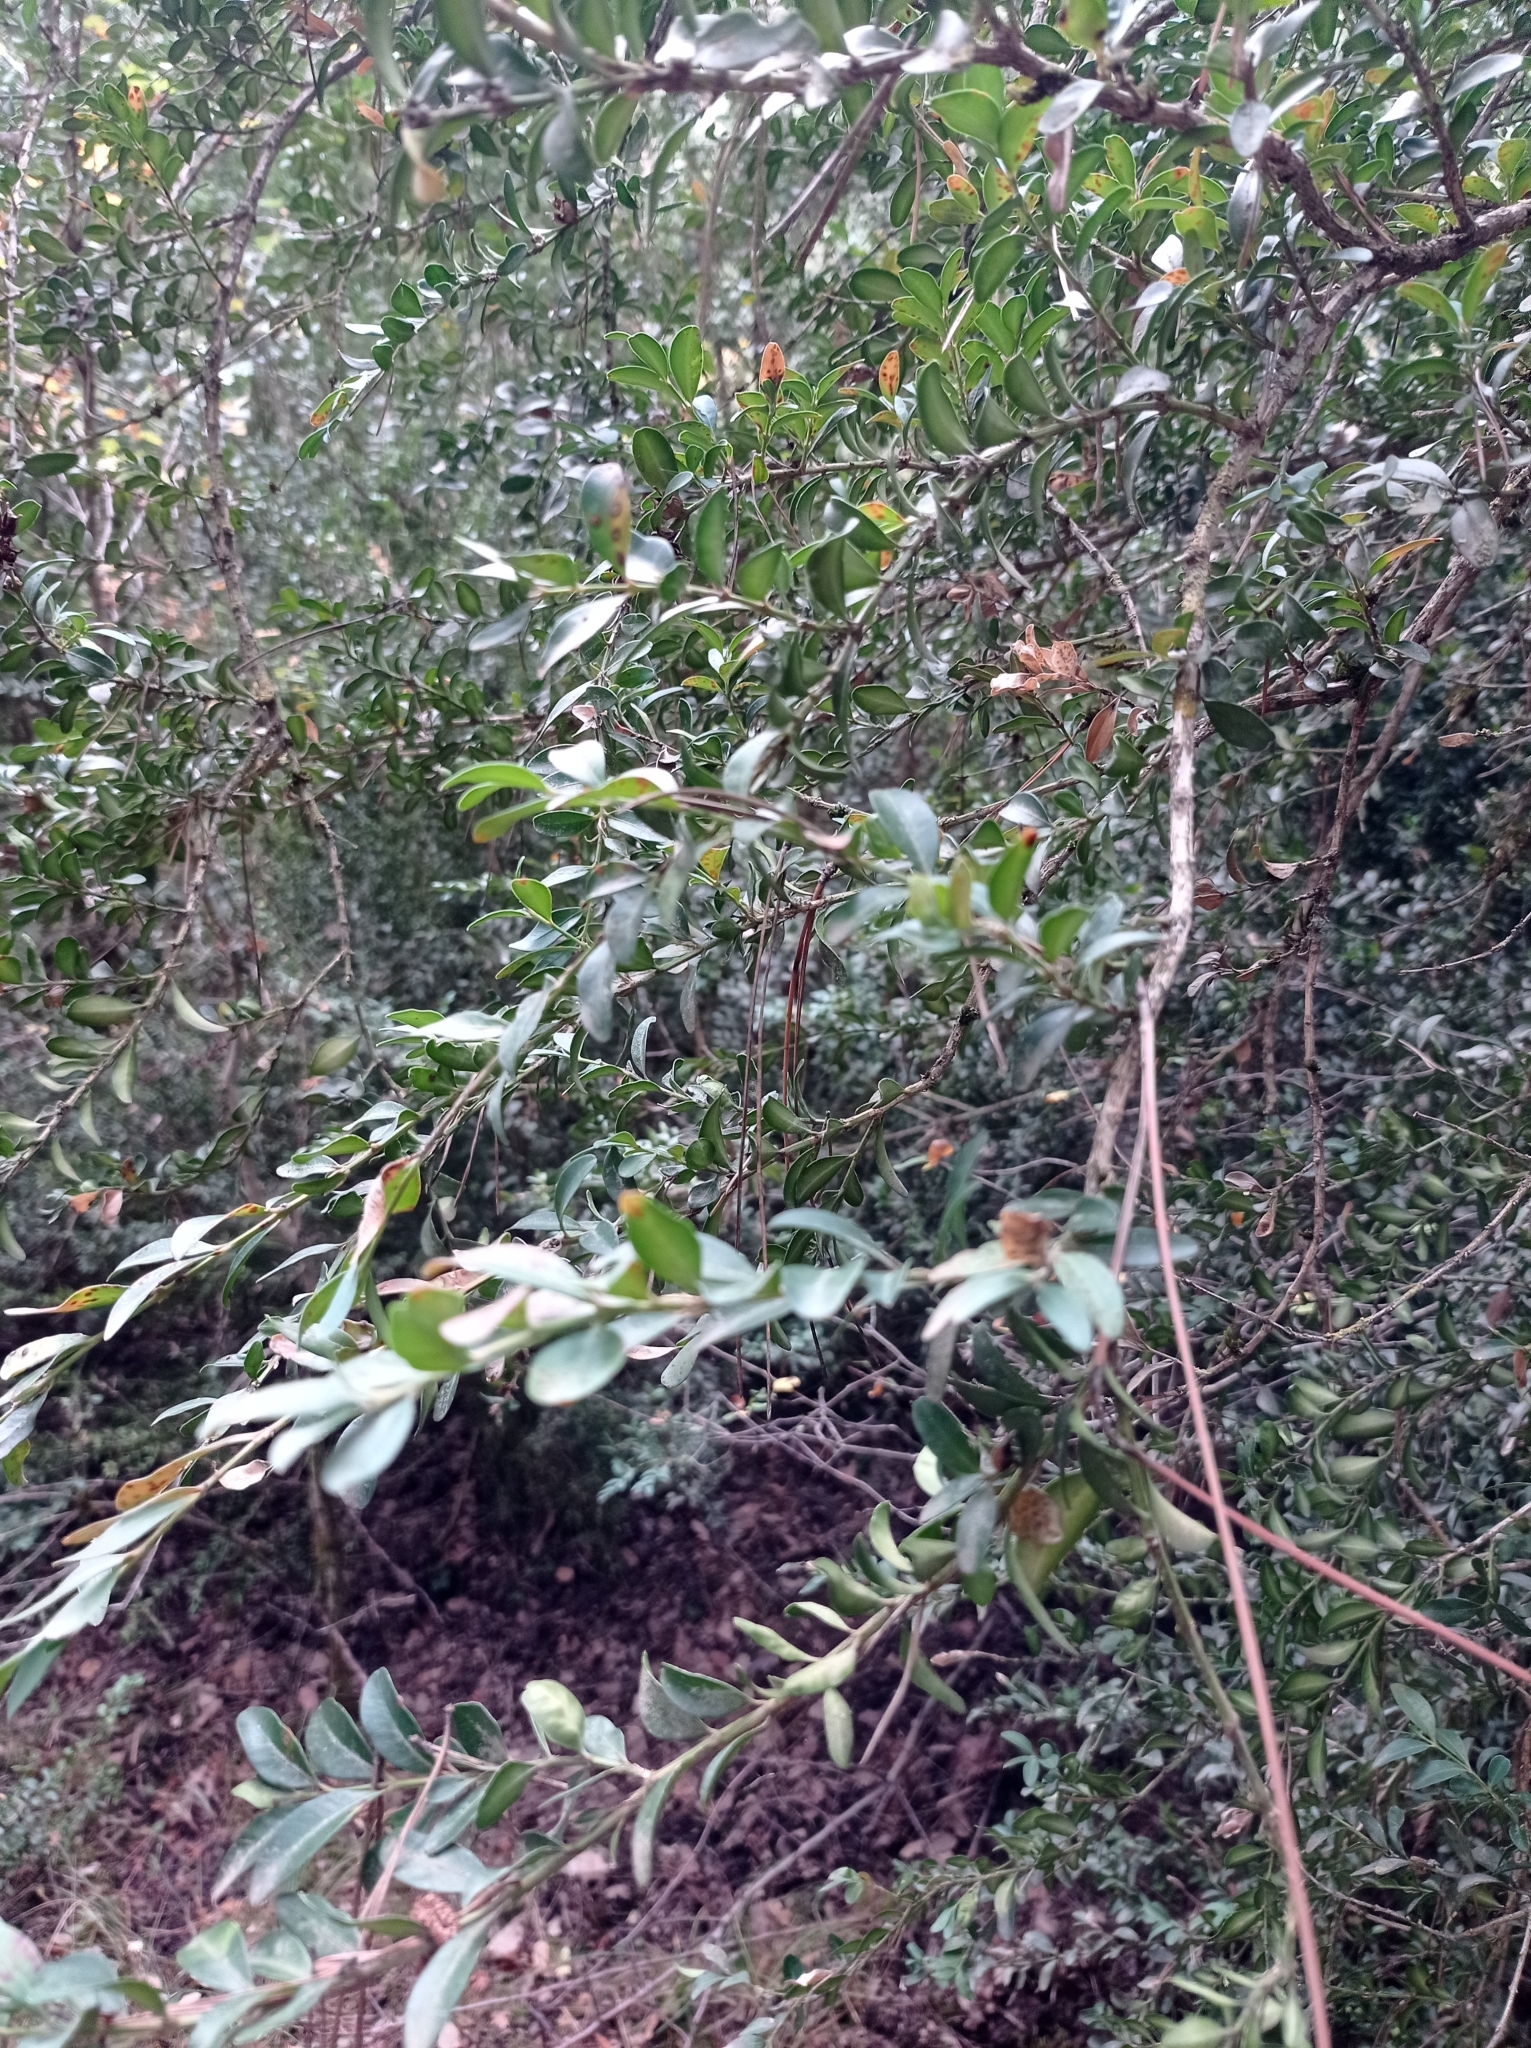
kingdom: Plantae
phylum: Tracheophyta
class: Magnoliopsida
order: Buxales
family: Buxaceae
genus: Buxus
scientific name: Buxus sempervirens
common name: Box
